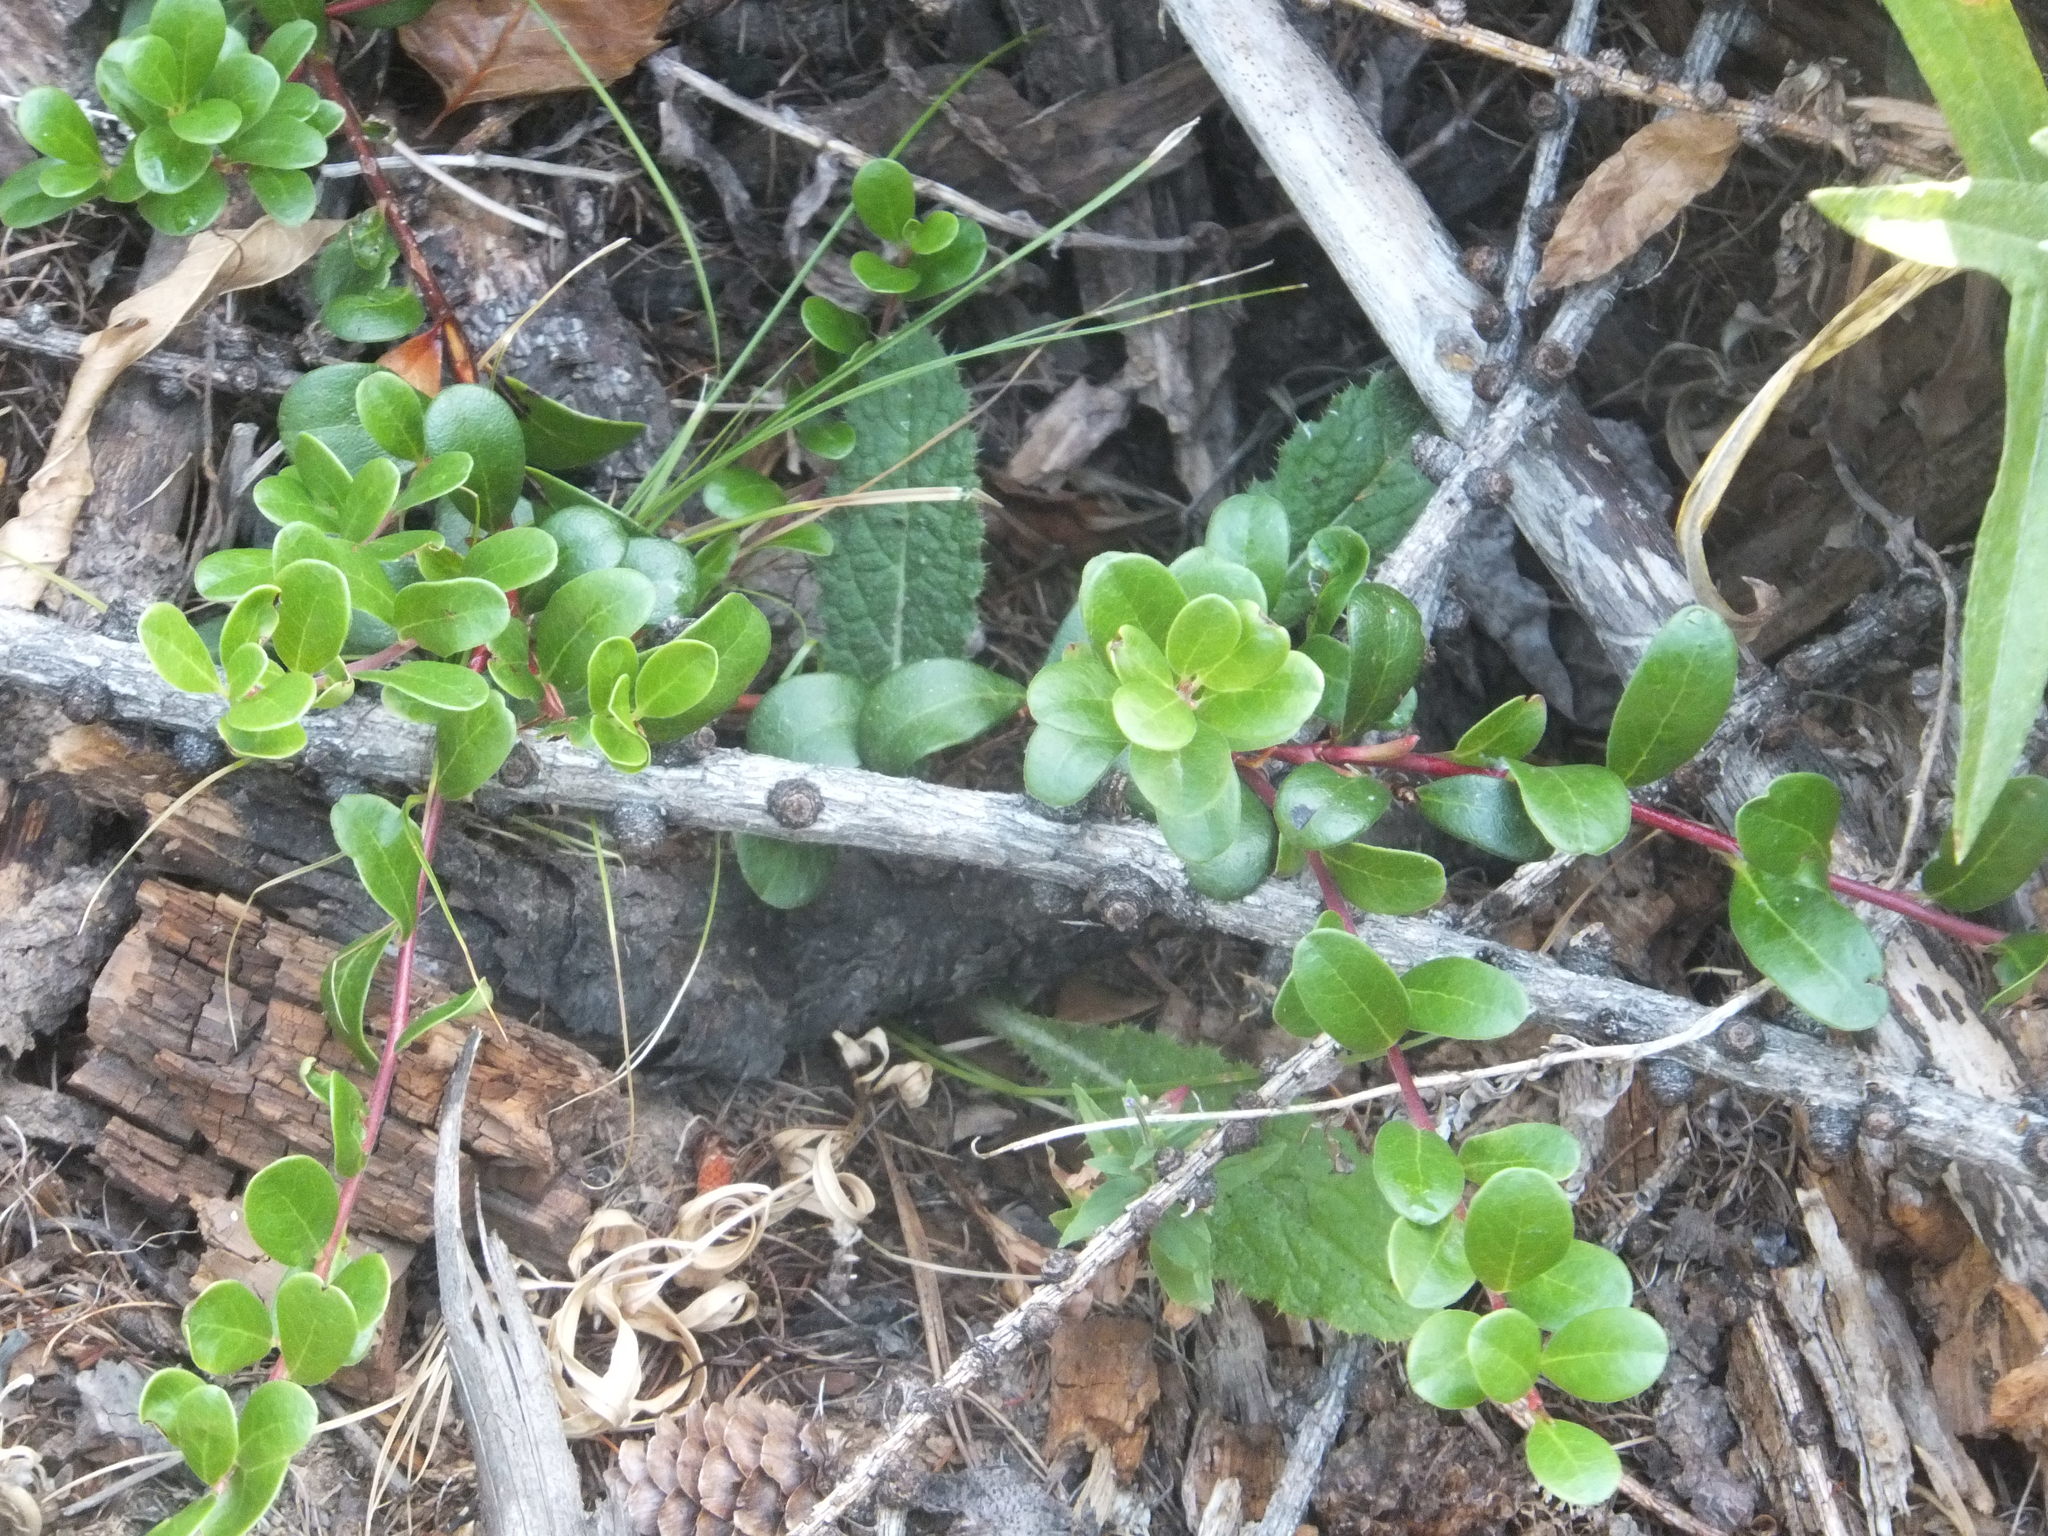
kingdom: Plantae
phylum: Tracheophyta
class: Magnoliopsida
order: Ericales
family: Ericaceae
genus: Arctostaphylos
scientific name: Arctostaphylos uva-ursi
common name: Bearberry
